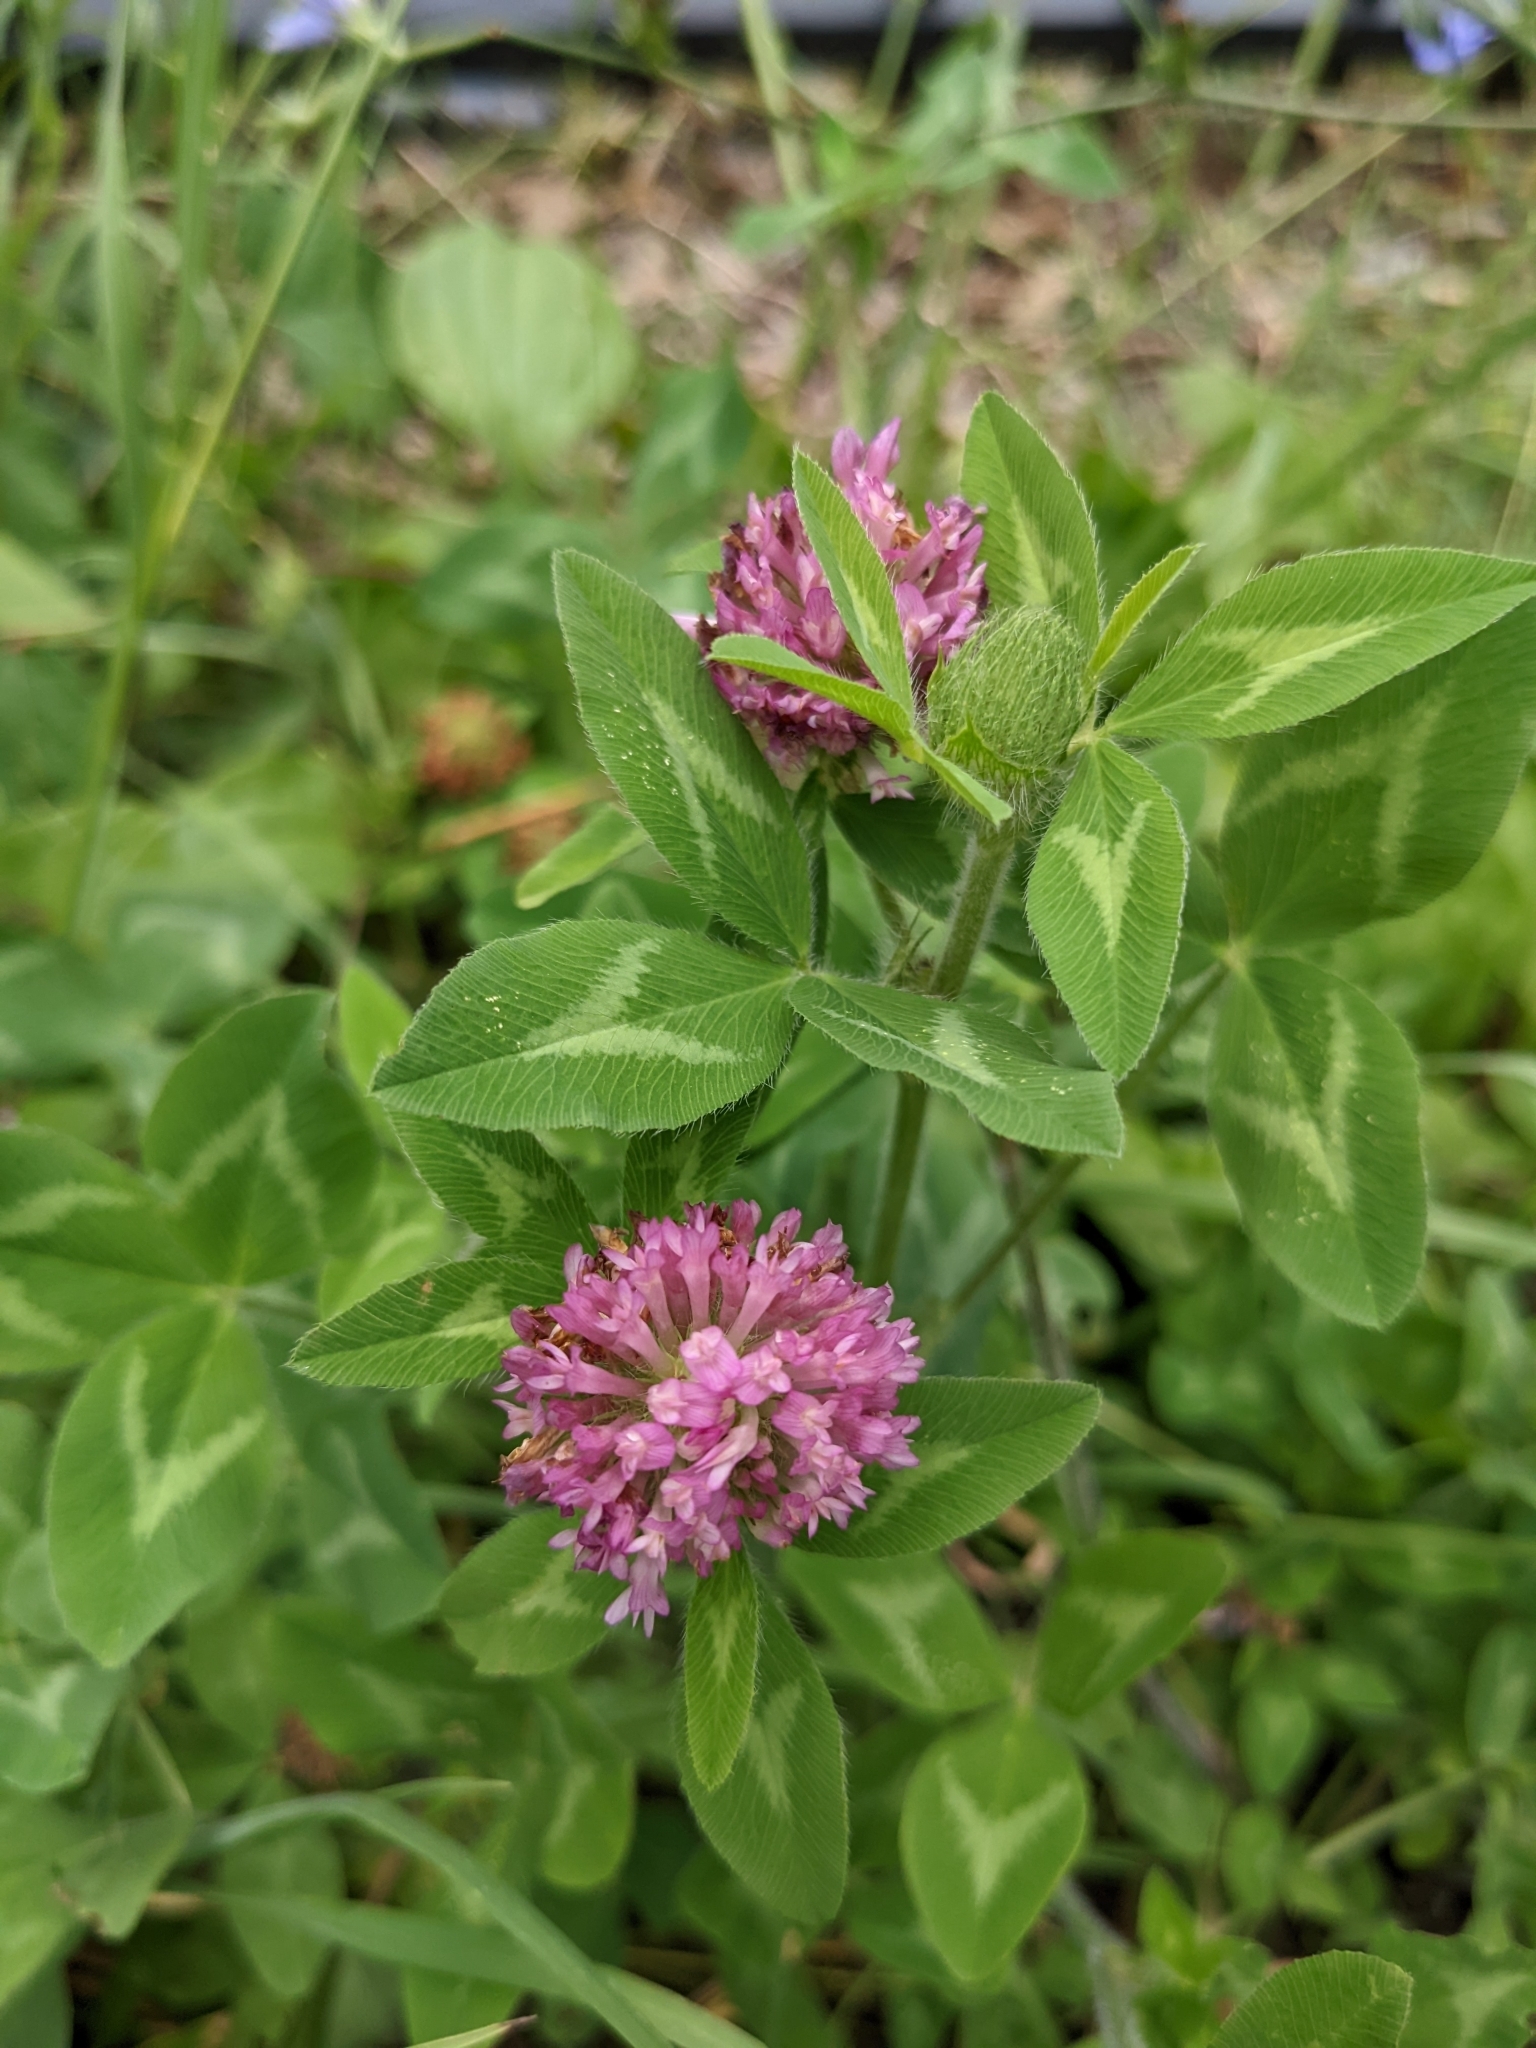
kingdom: Plantae
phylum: Tracheophyta
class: Magnoliopsida
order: Fabales
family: Fabaceae
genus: Trifolium
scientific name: Trifolium pratense
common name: Red clover
